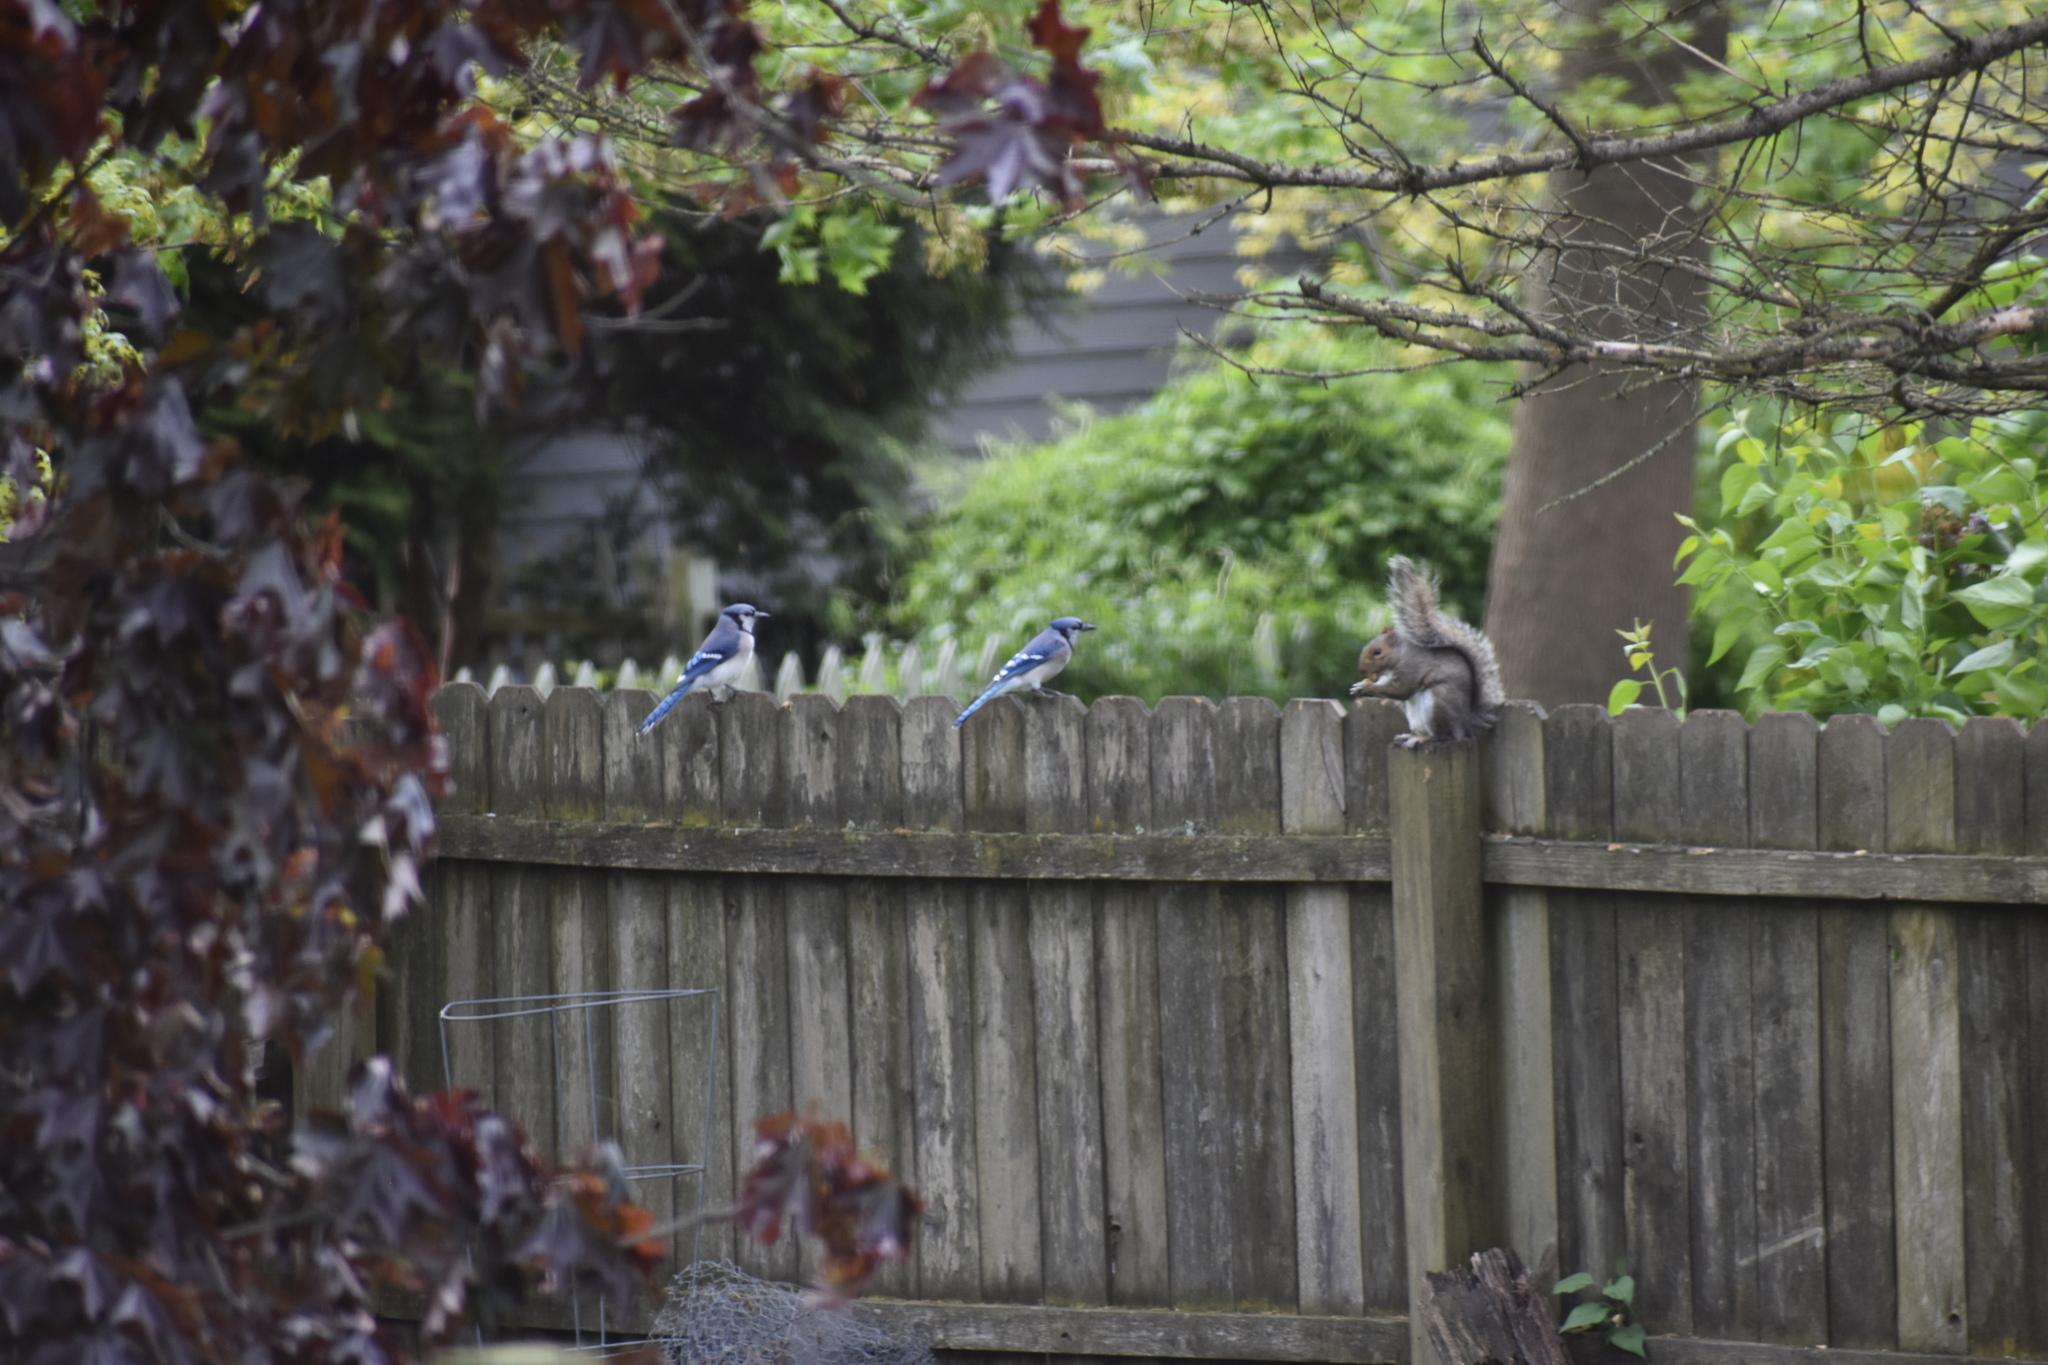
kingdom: Animalia
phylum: Chordata
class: Aves
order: Passeriformes
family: Corvidae
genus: Cyanocitta
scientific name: Cyanocitta cristata
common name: Blue jay
